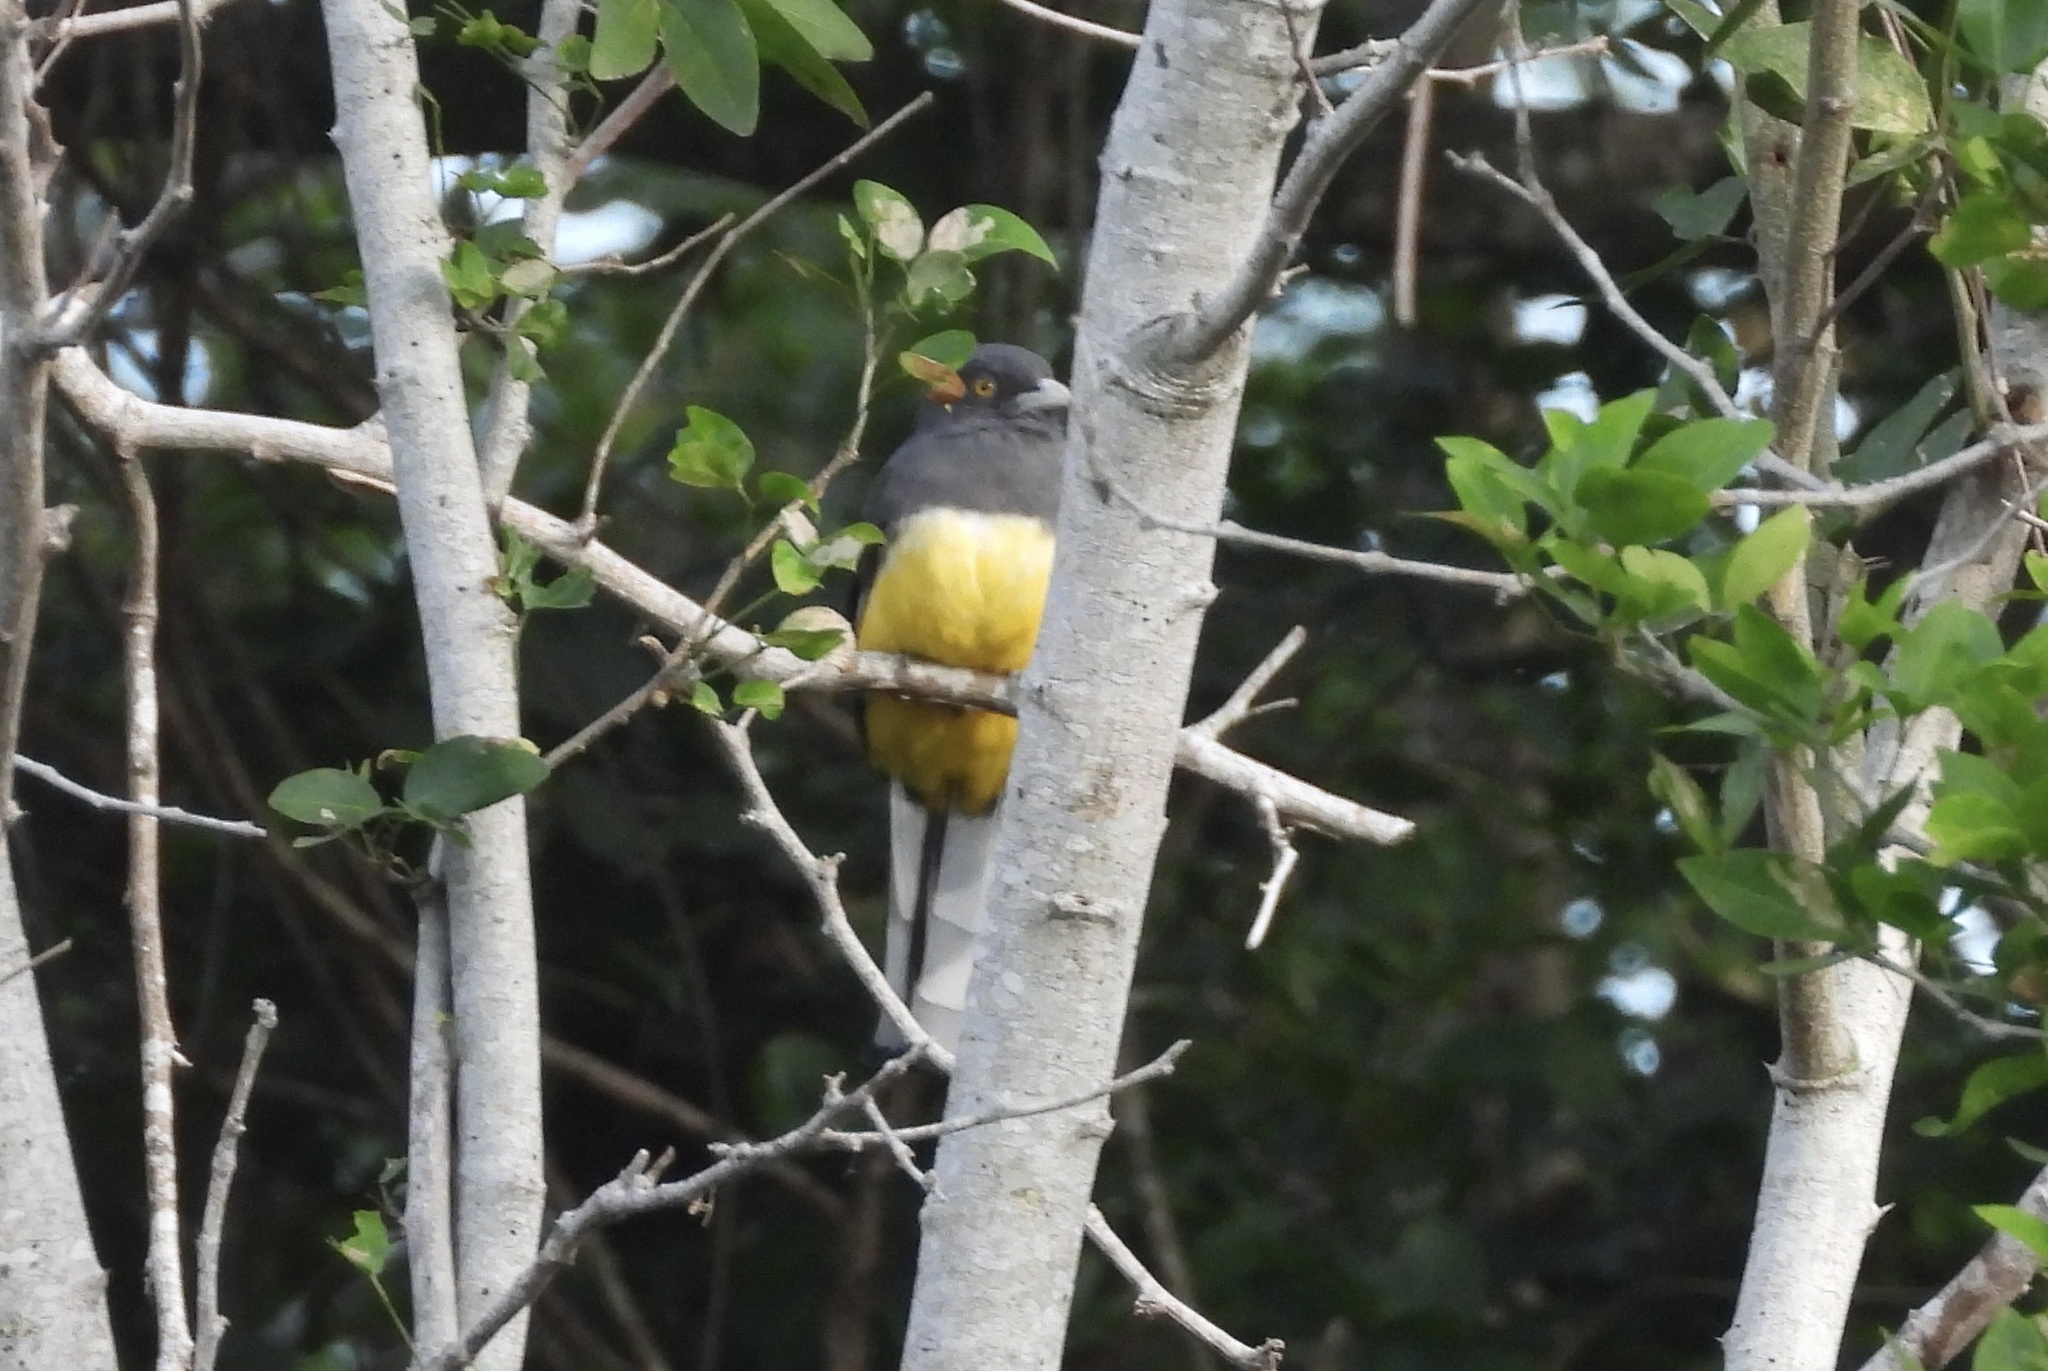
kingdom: Animalia
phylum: Chordata
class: Aves
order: Trogoniformes
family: Trogonidae
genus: Trogon
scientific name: Trogon citreolus
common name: Citreoline trogon
